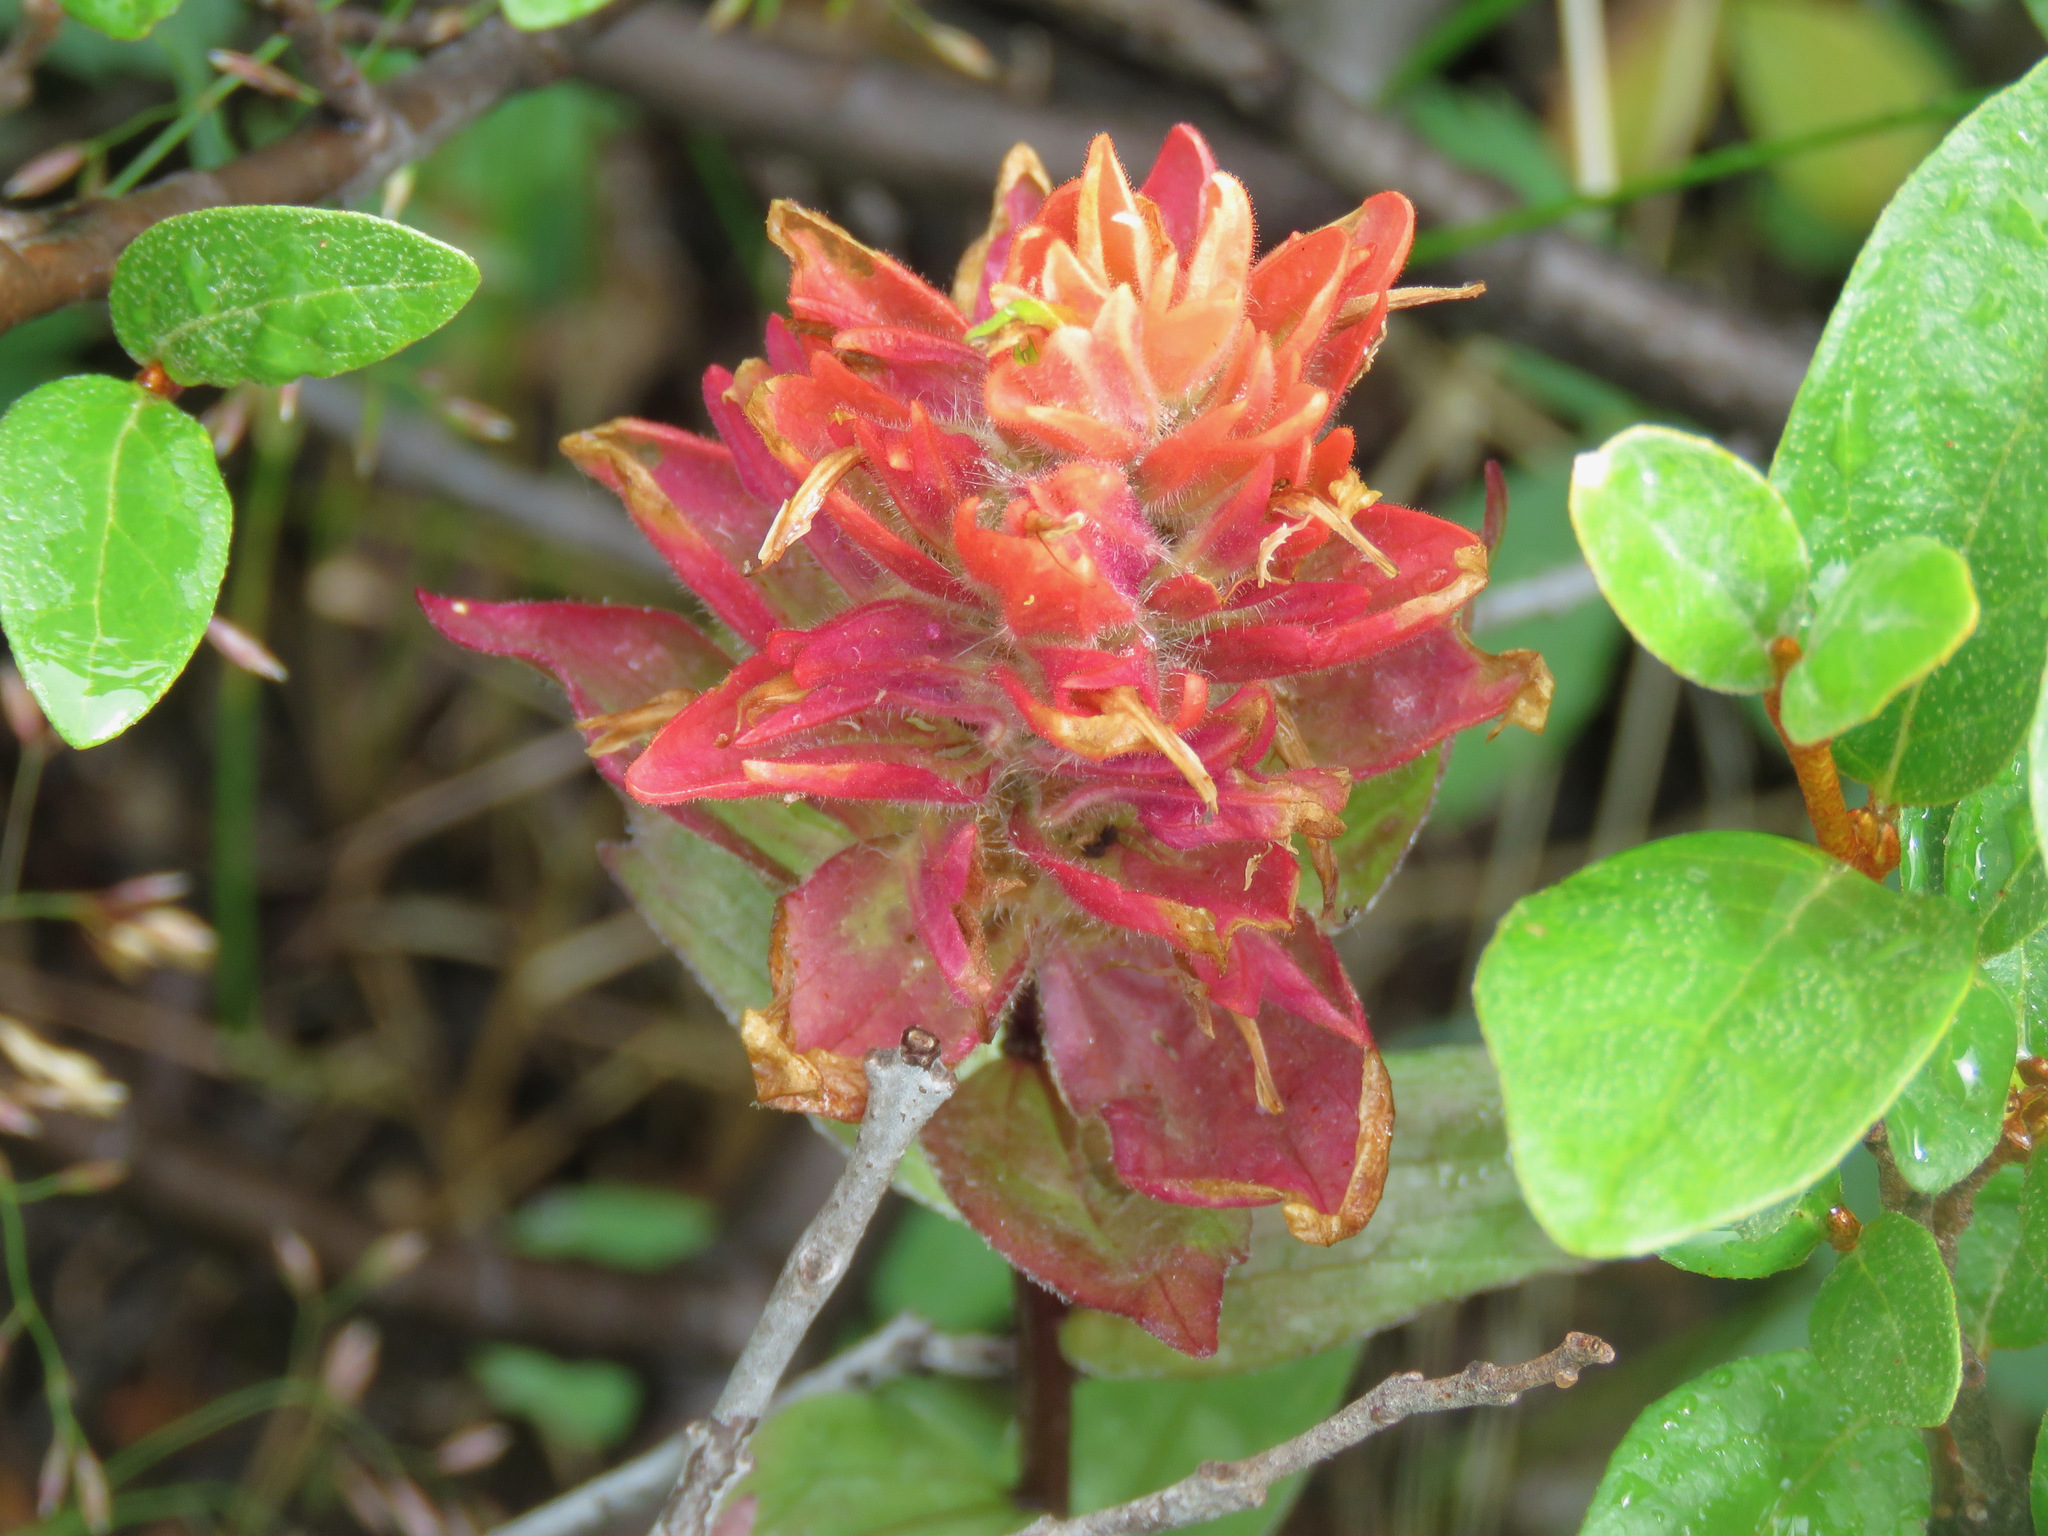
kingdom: Plantae
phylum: Tracheophyta
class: Magnoliopsida
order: Lamiales
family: Orobanchaceae
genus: Castilleja
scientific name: Castilleja miniata
